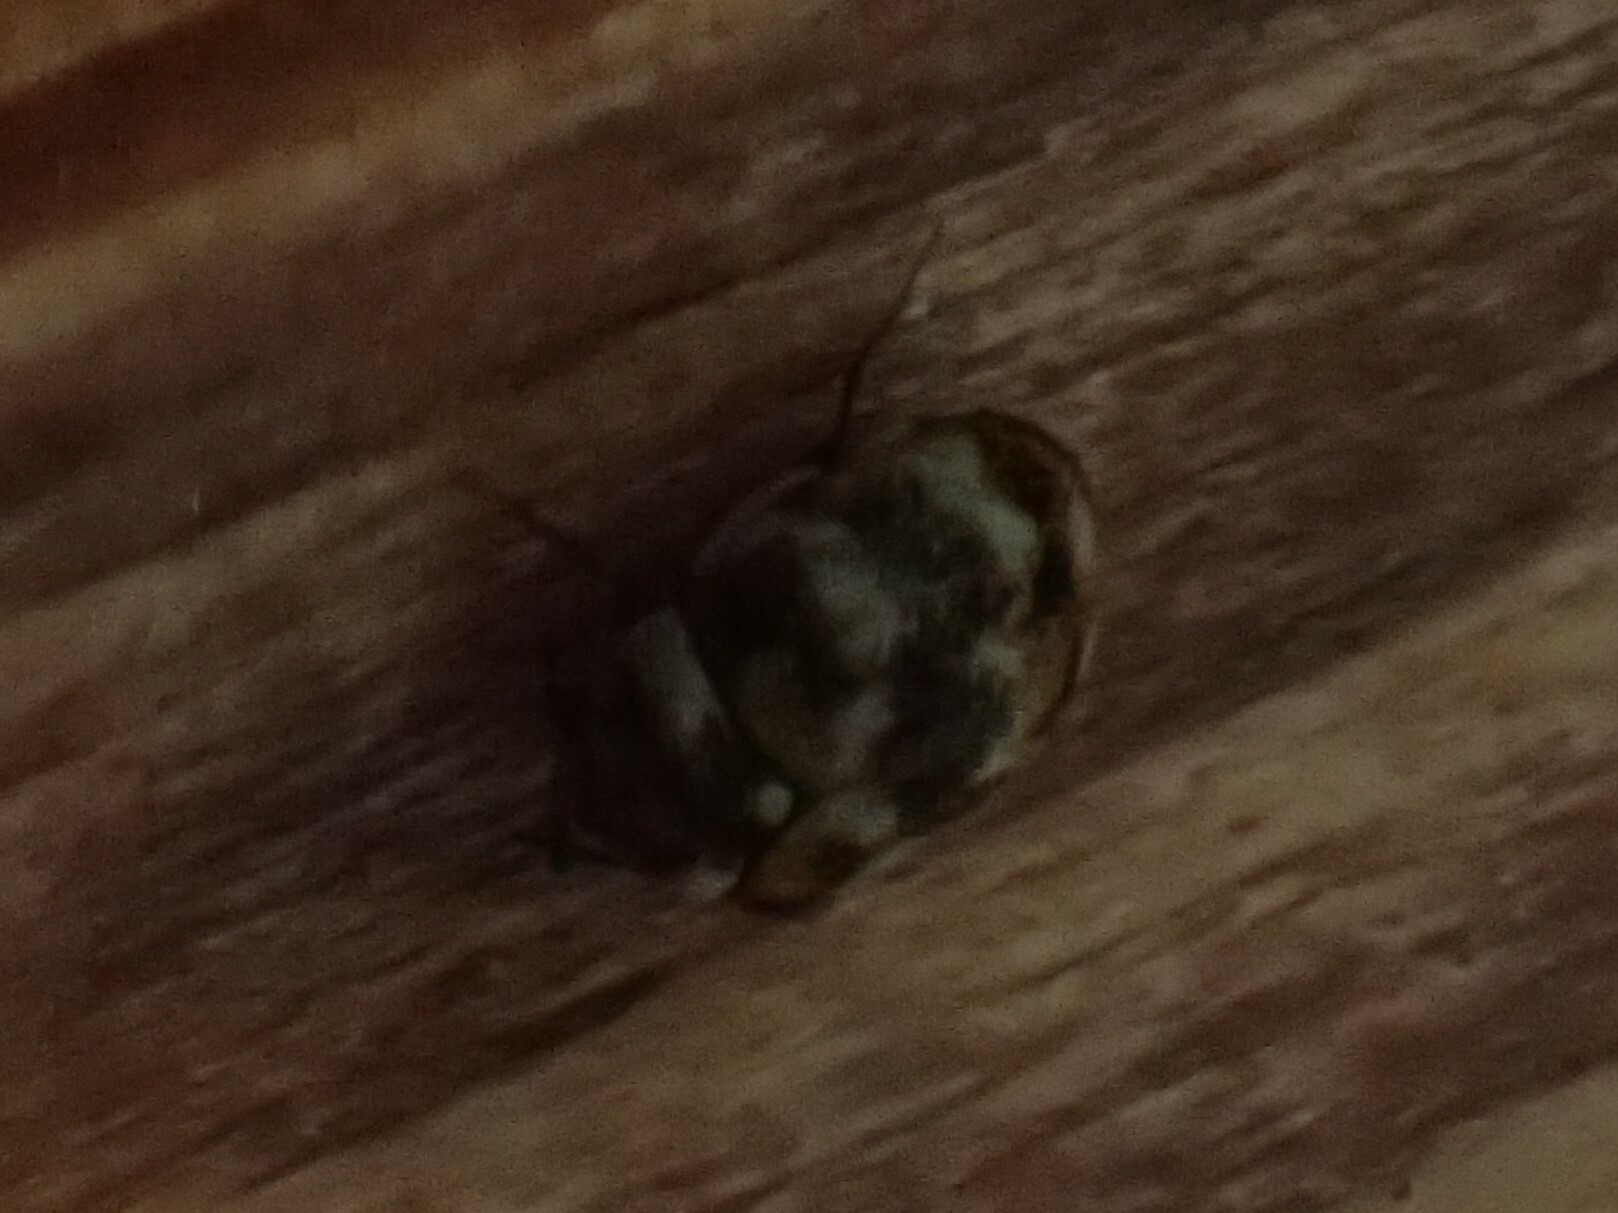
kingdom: Animalia
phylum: Arthropoda
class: Insecta
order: Coleoptera
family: Dermestidae
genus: Anthrenus
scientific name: Anthrenus verbasci
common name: Varied carpet beetle
